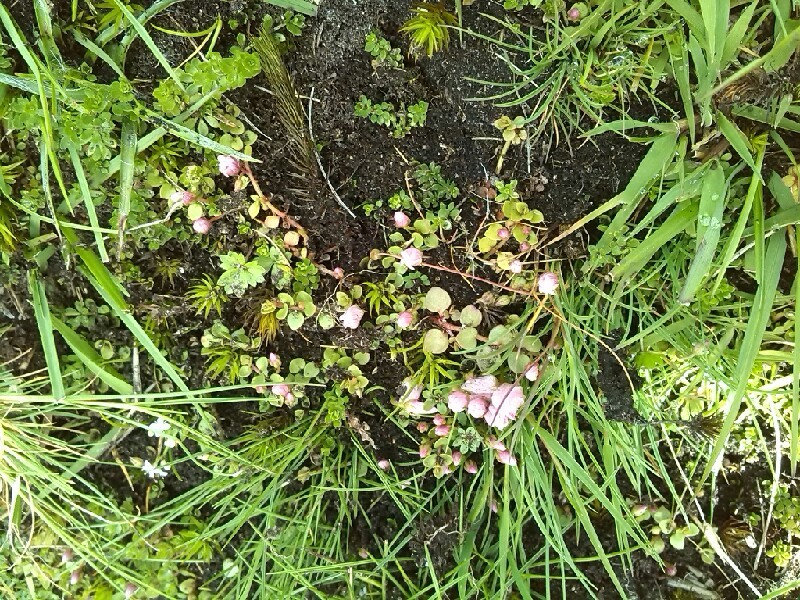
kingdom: Plantae
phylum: Tracheophyta
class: Magnoliopsida
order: Ericales
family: Primulaceae
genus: Lysimachia
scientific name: Lysimachia tenella
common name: European bog pimpernel
